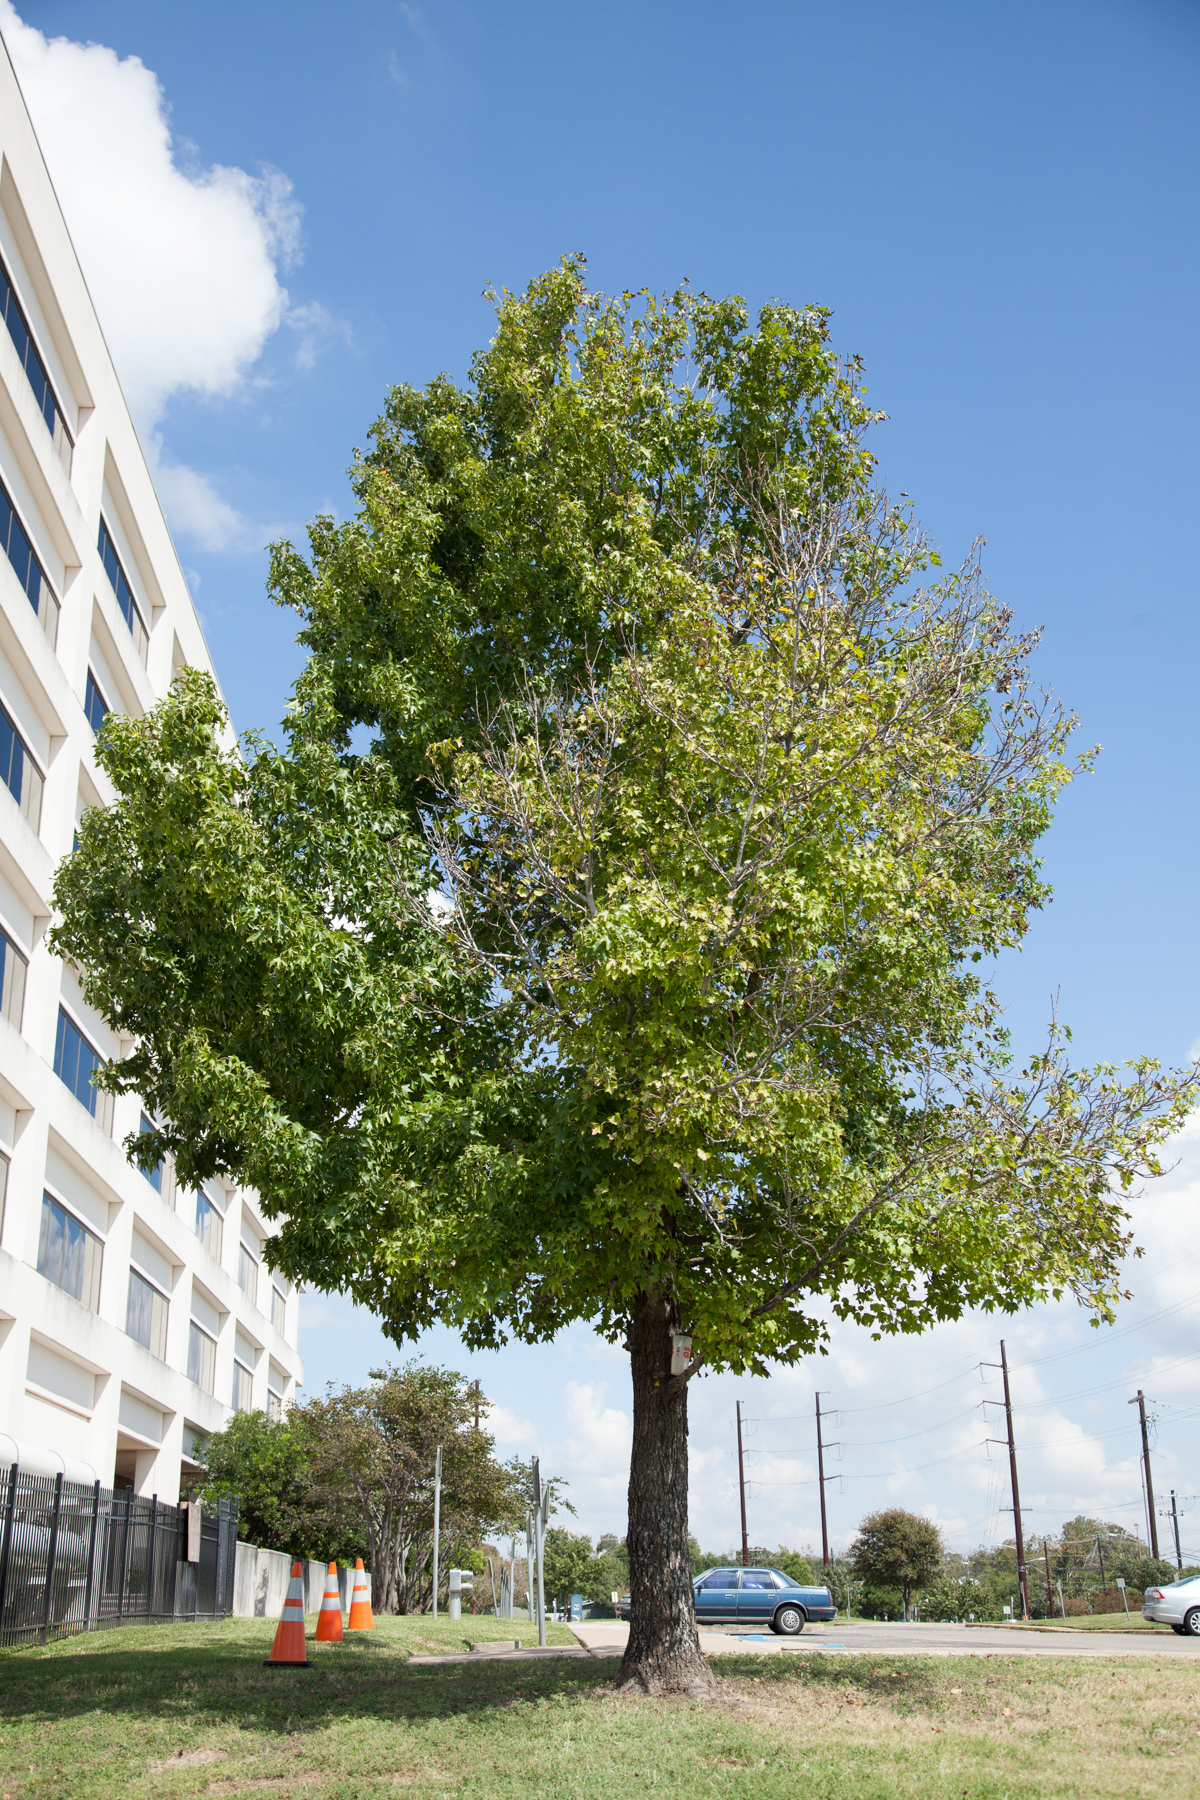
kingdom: Plantae
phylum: Tracheophyta
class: Magnoliopsida
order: Saxifragales
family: Altingiaceae
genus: Liquidambar
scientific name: Liquidambar styraciflua
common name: Sweet gum
